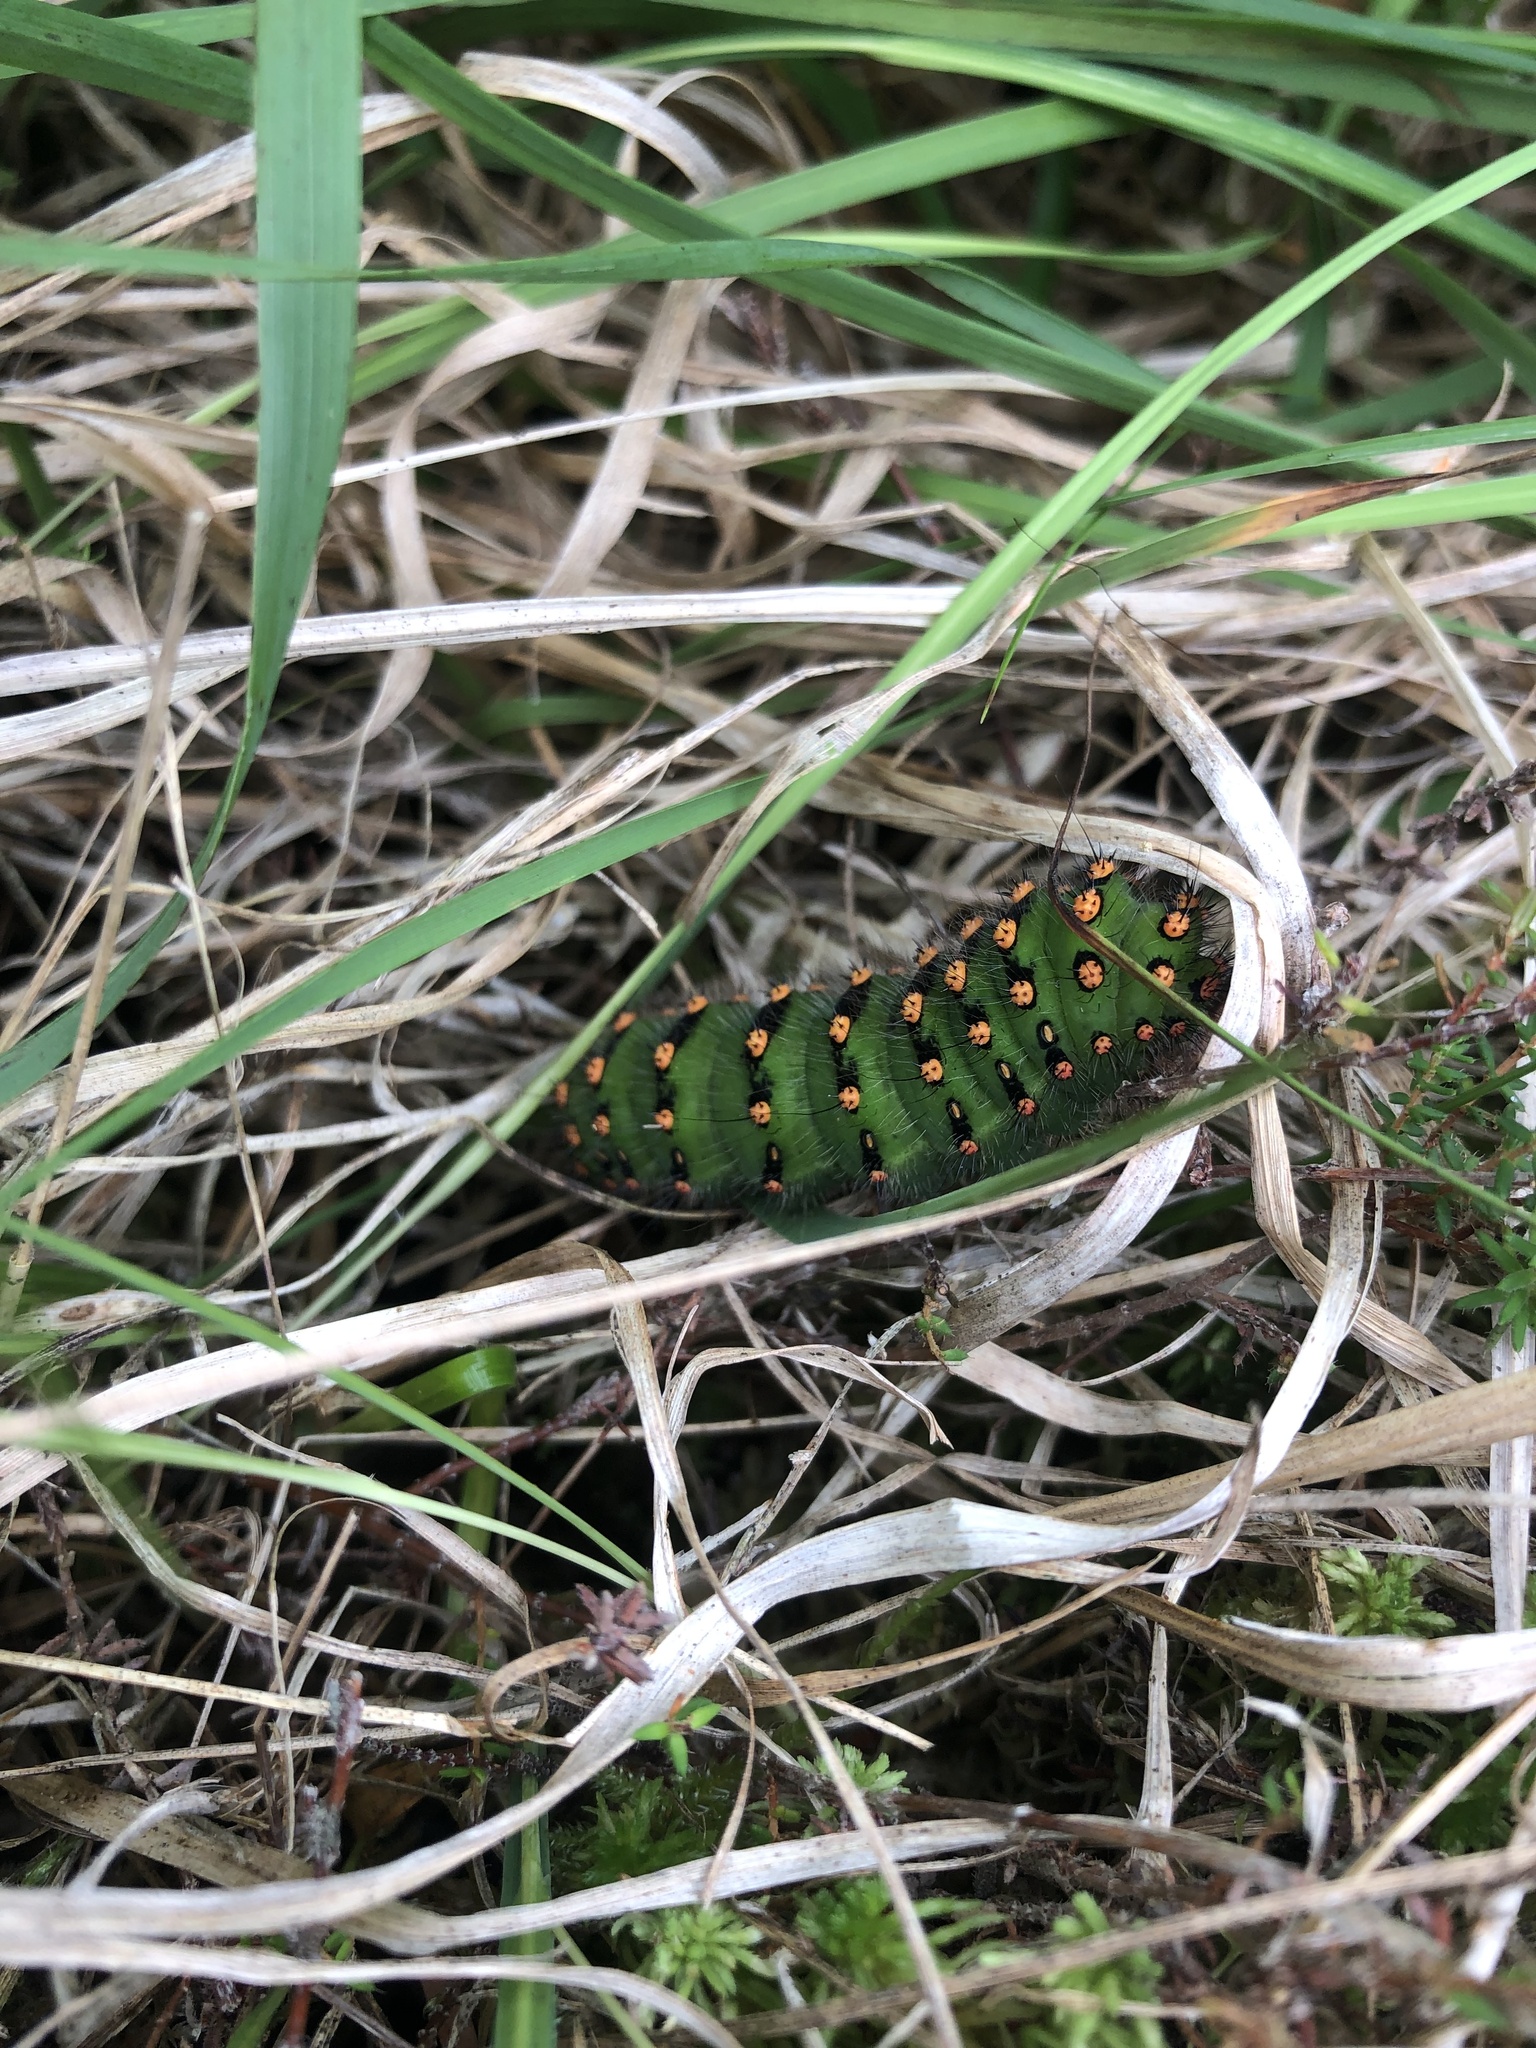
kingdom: Animalia
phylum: Arthropoda
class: Insecta
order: Lepidoptera
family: Saturniidae
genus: Saturnia
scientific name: Saturnia pavonia
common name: Emperor moth
